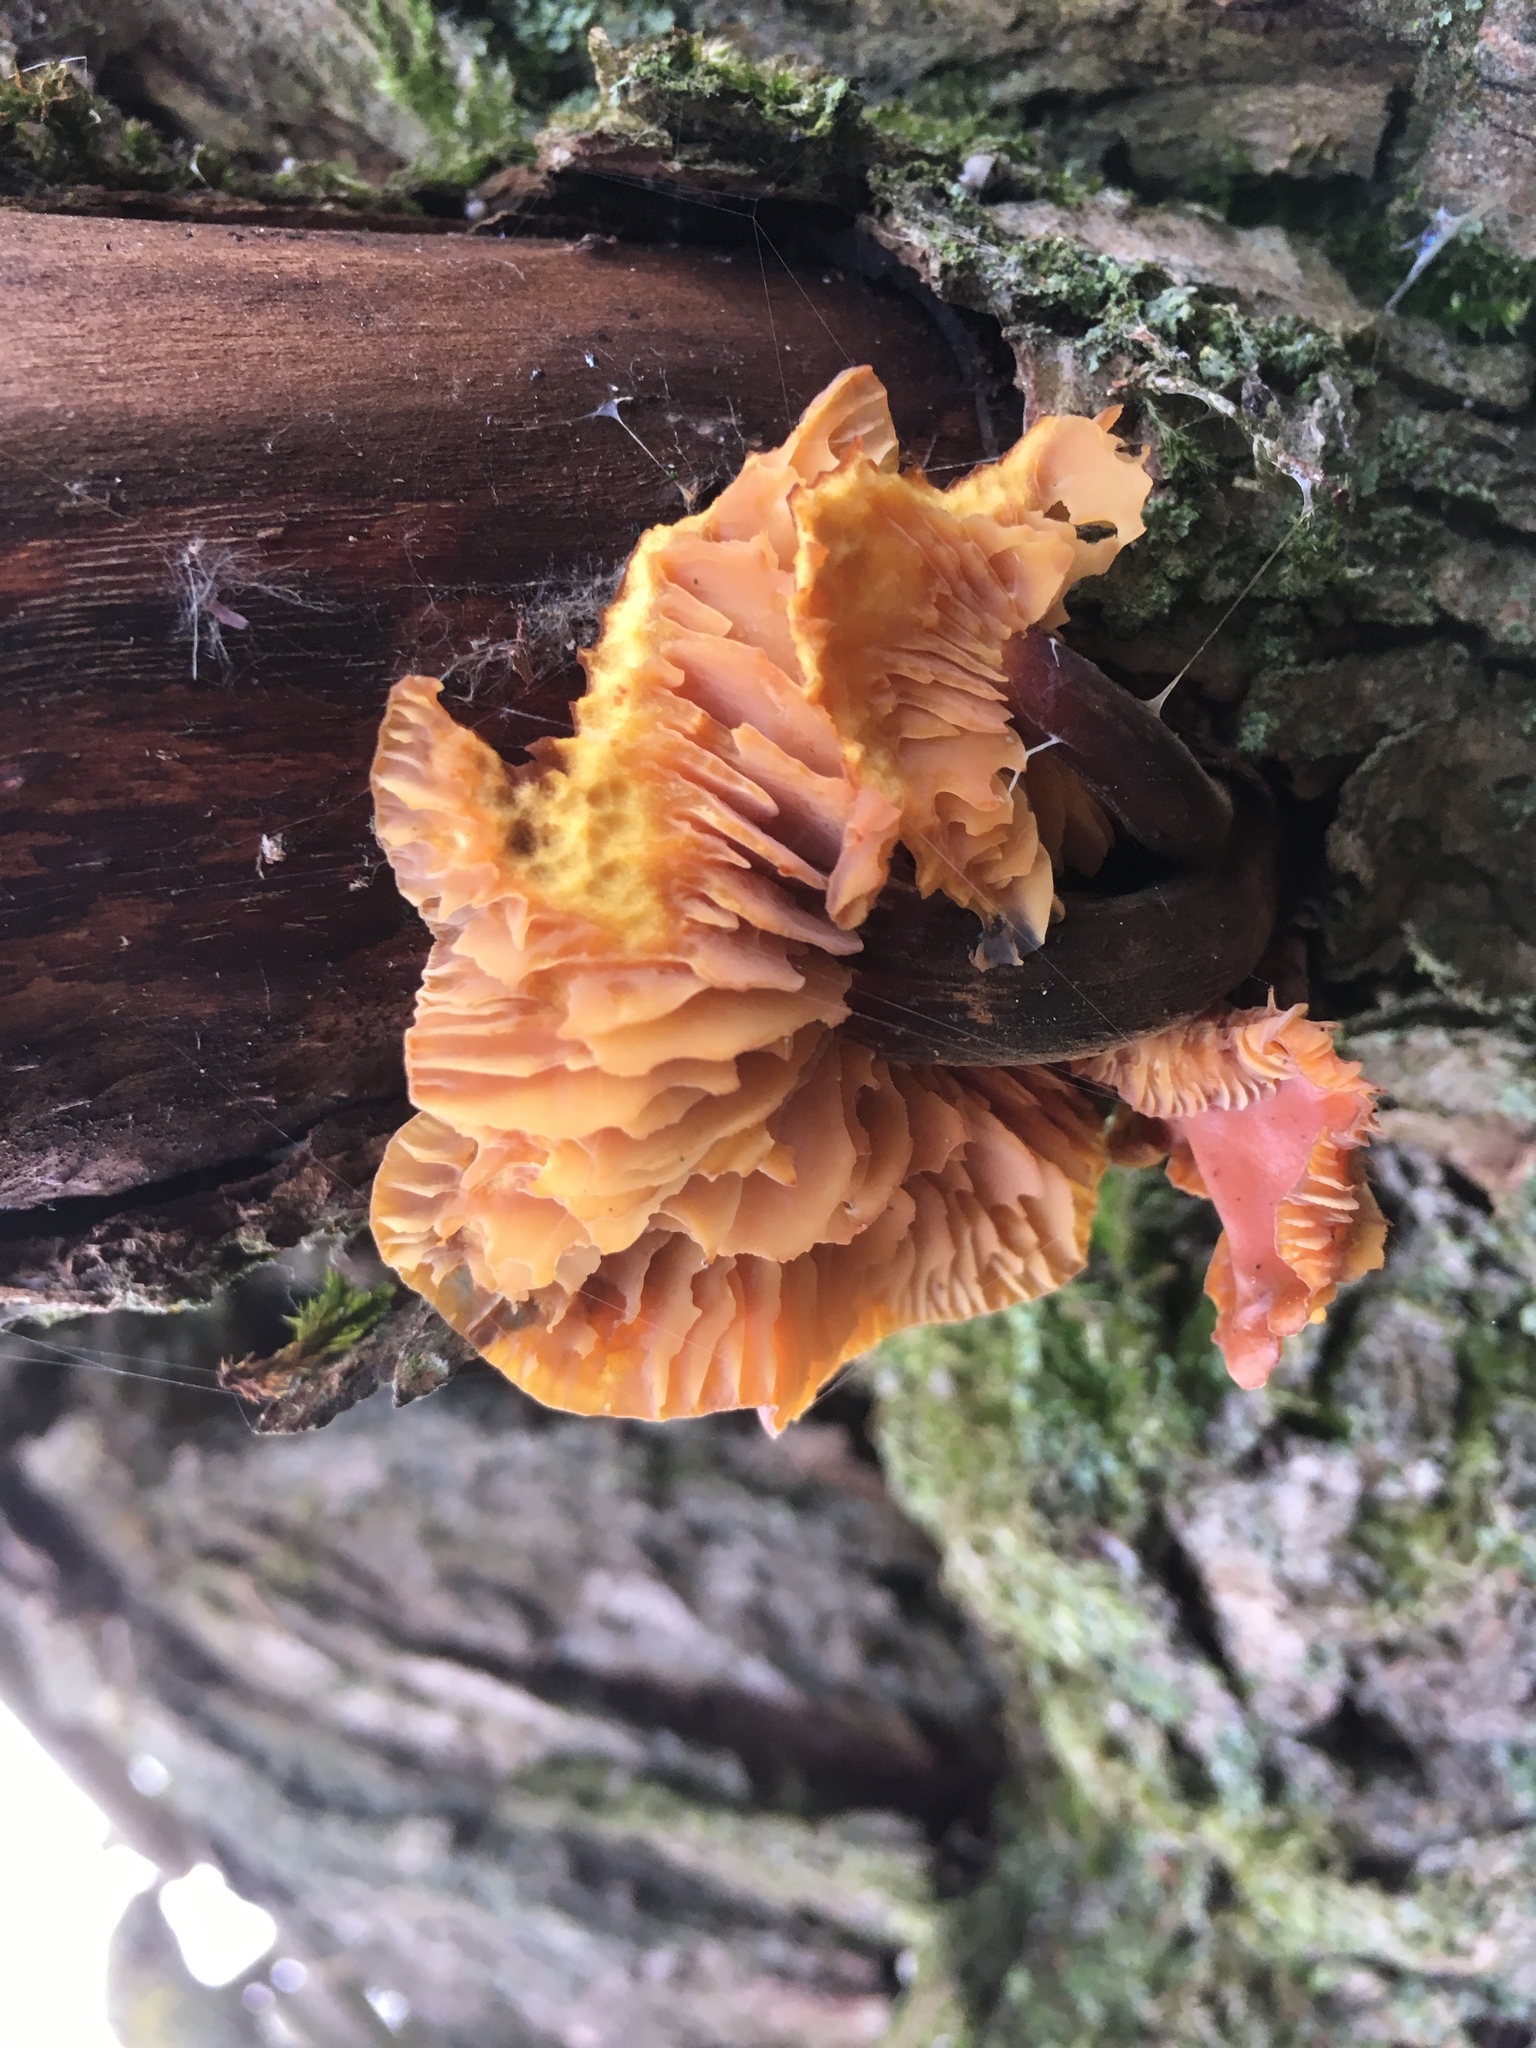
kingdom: Fungi
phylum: Basidiomycota
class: Agaricomycetes
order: Agaricales
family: Physalacriaceae
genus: Flammulina
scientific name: Flammulina
